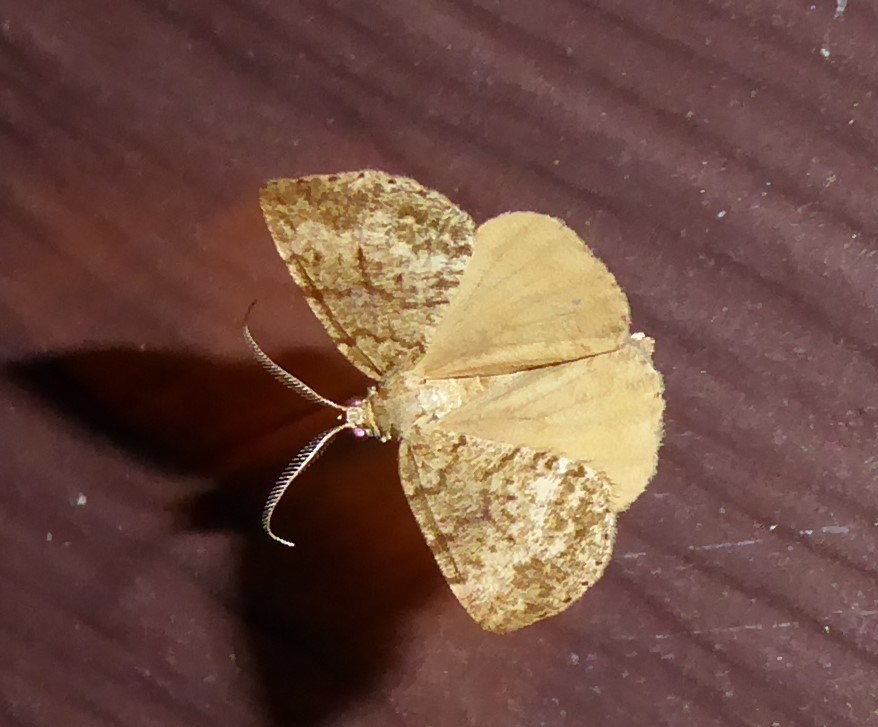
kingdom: Animalia
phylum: Arthropoda
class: Insecta
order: Lepidoptera
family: Geometridae
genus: Pseudocoremia
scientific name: Pseudocoremia indistincta
